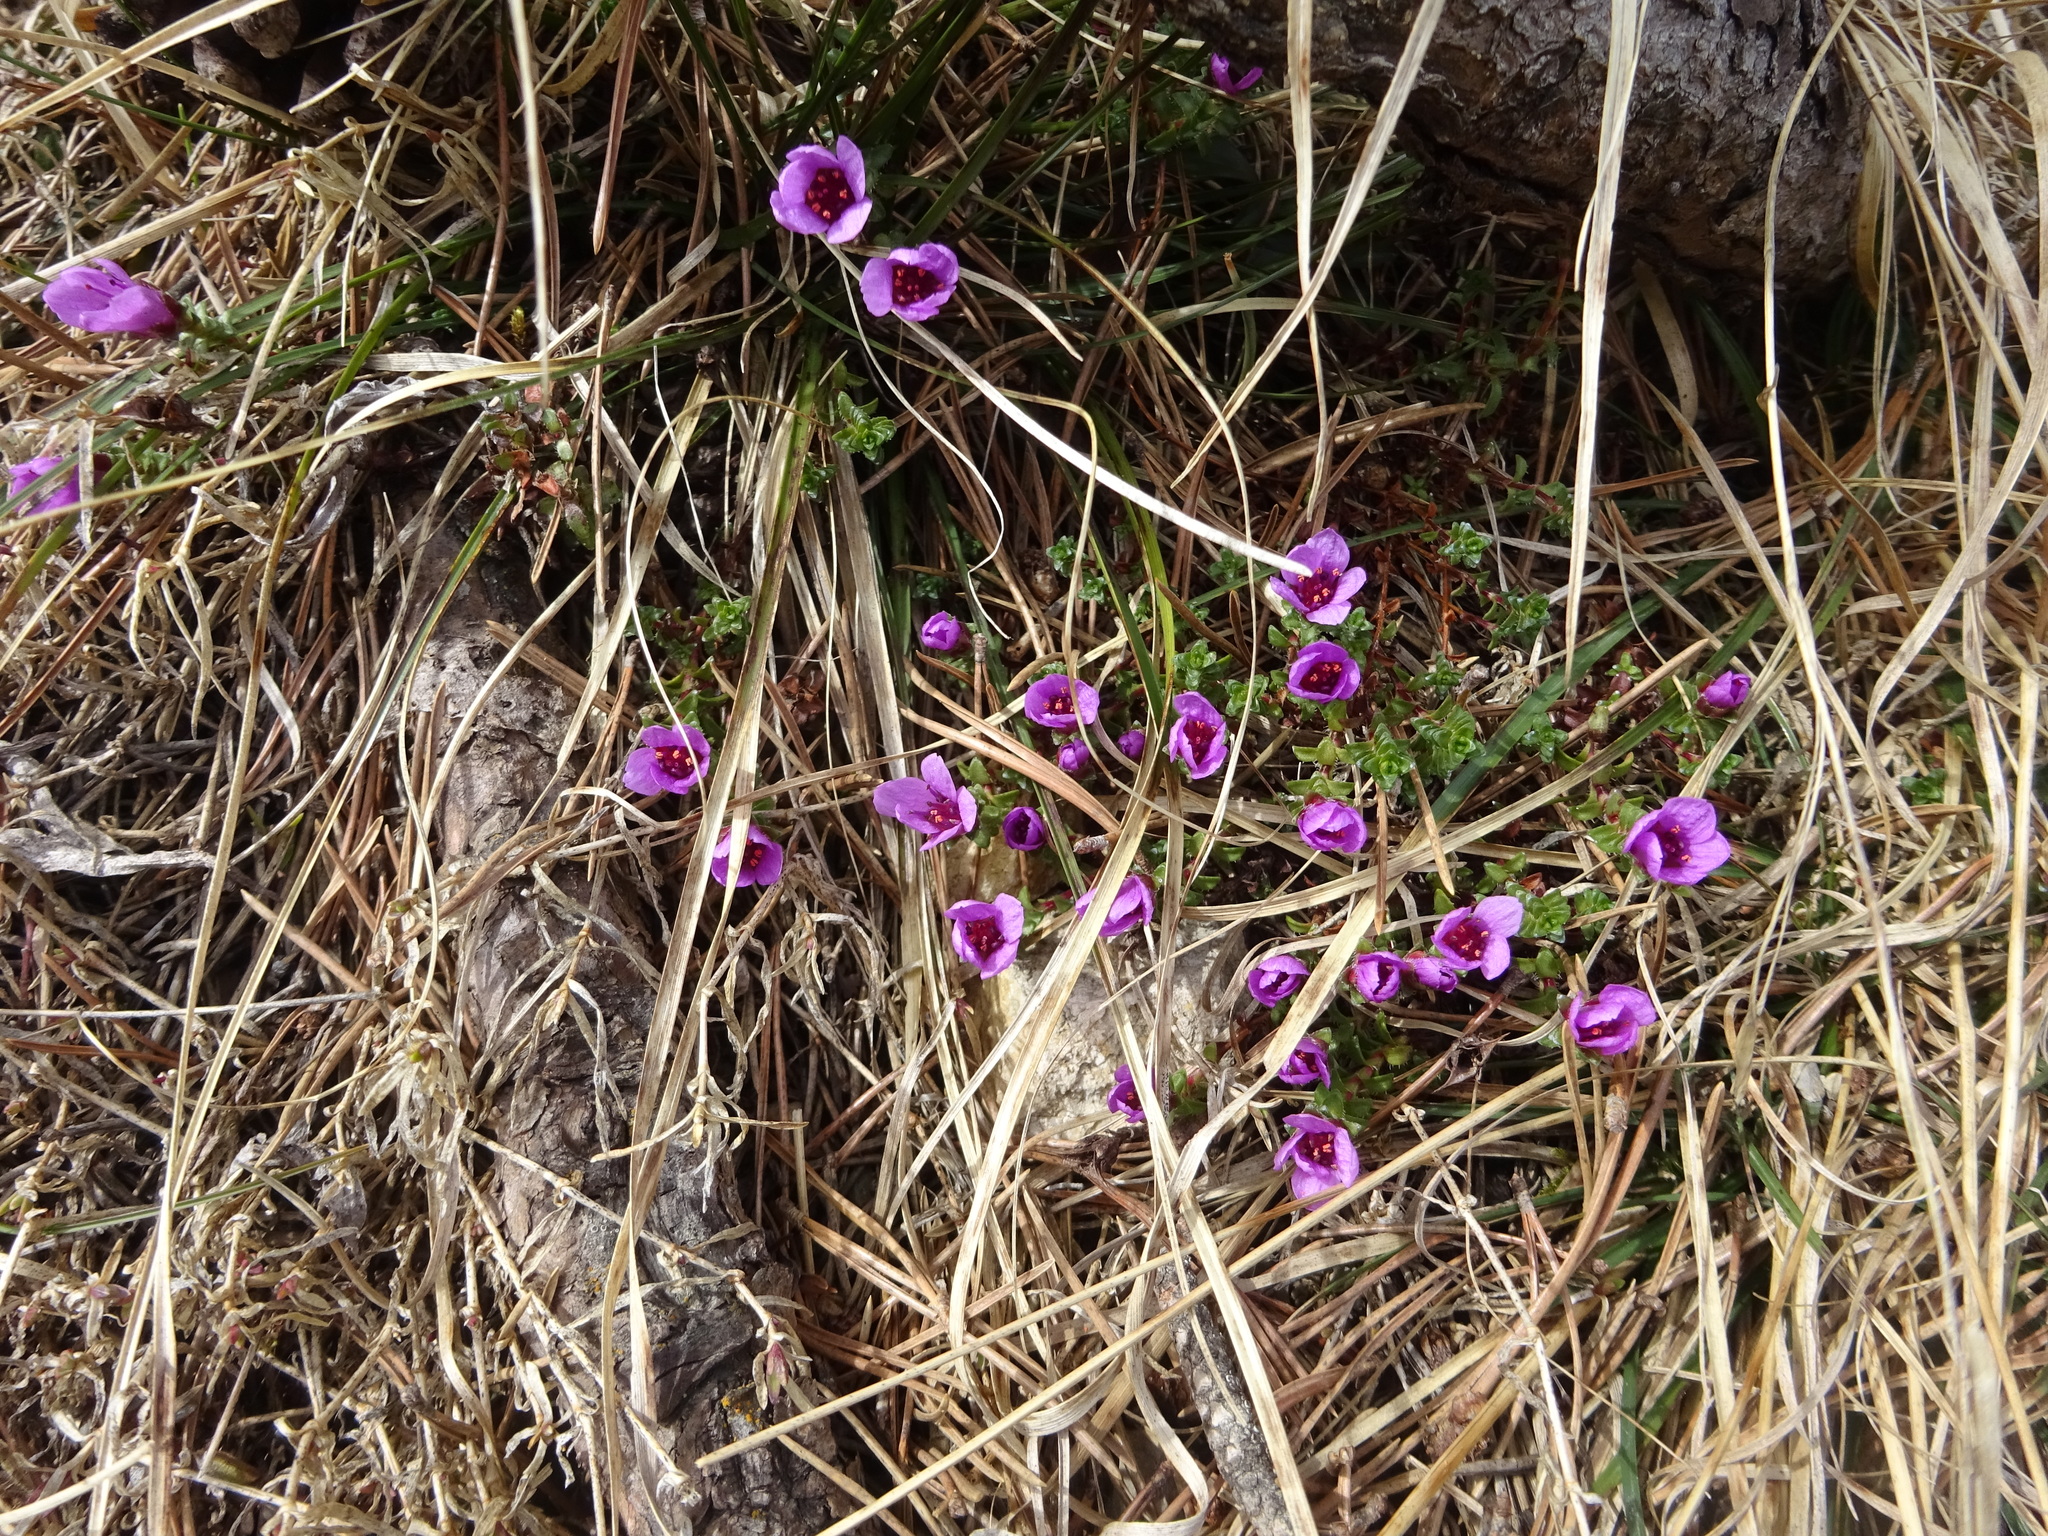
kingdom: Plantae
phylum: Tracheophyta
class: Magnoliopsida
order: Saxifragales
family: Saxifragaceae
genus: Saxifraga
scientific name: Saxifraga oppositifolia
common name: Purple saxifrage
